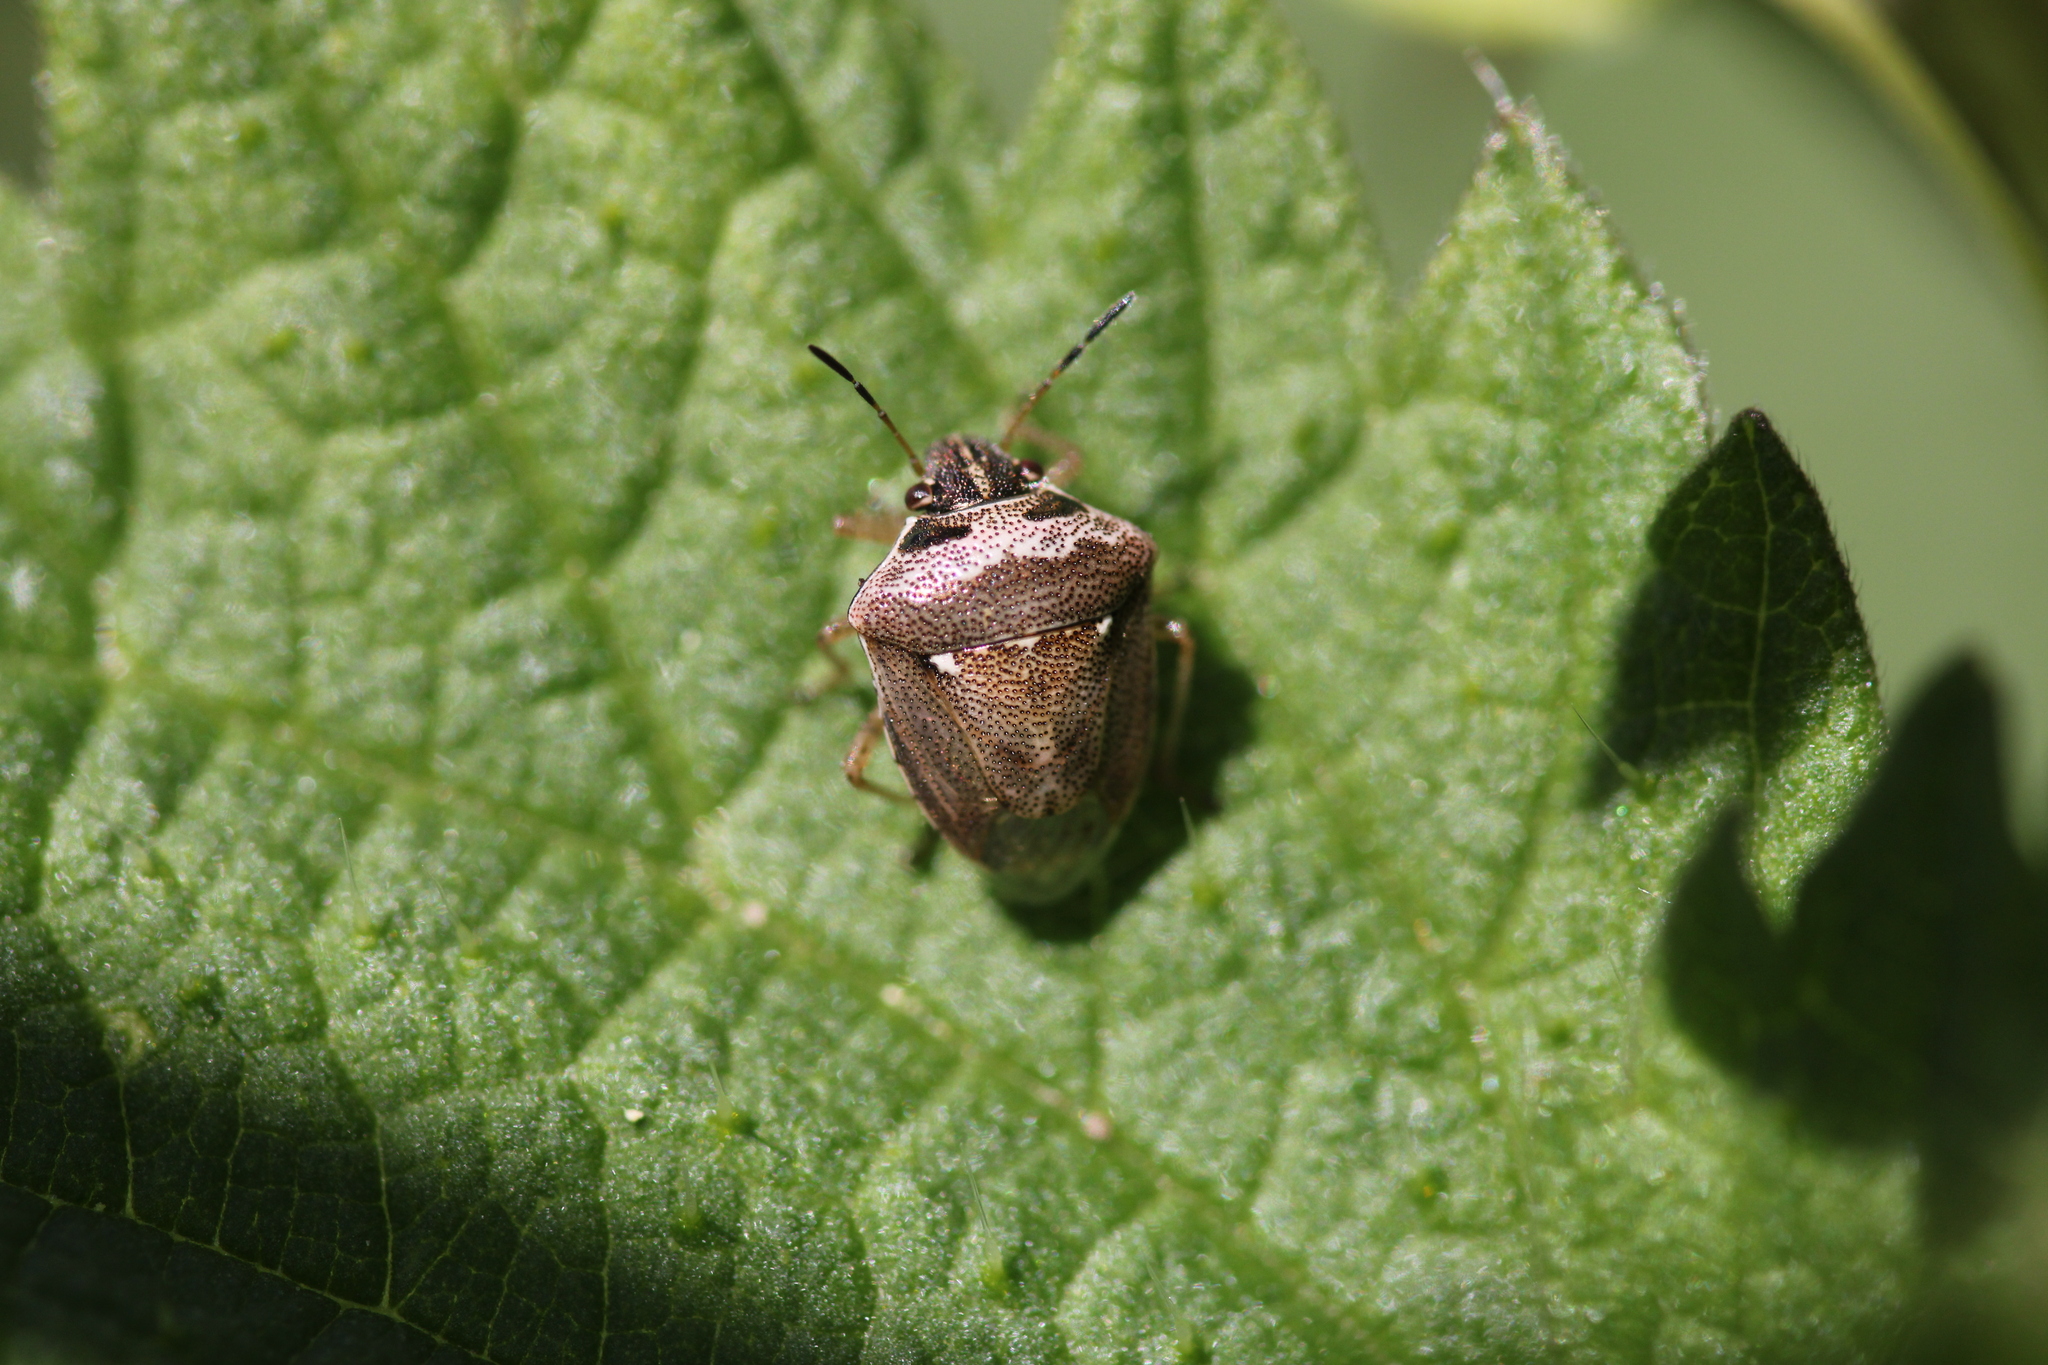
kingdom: Animalia
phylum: Arthropoda
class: Insecta
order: Hemiptera
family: Pentatomidae
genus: Eysarcoris
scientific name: Eysarcoris ventralis
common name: White-spotted stink bug
